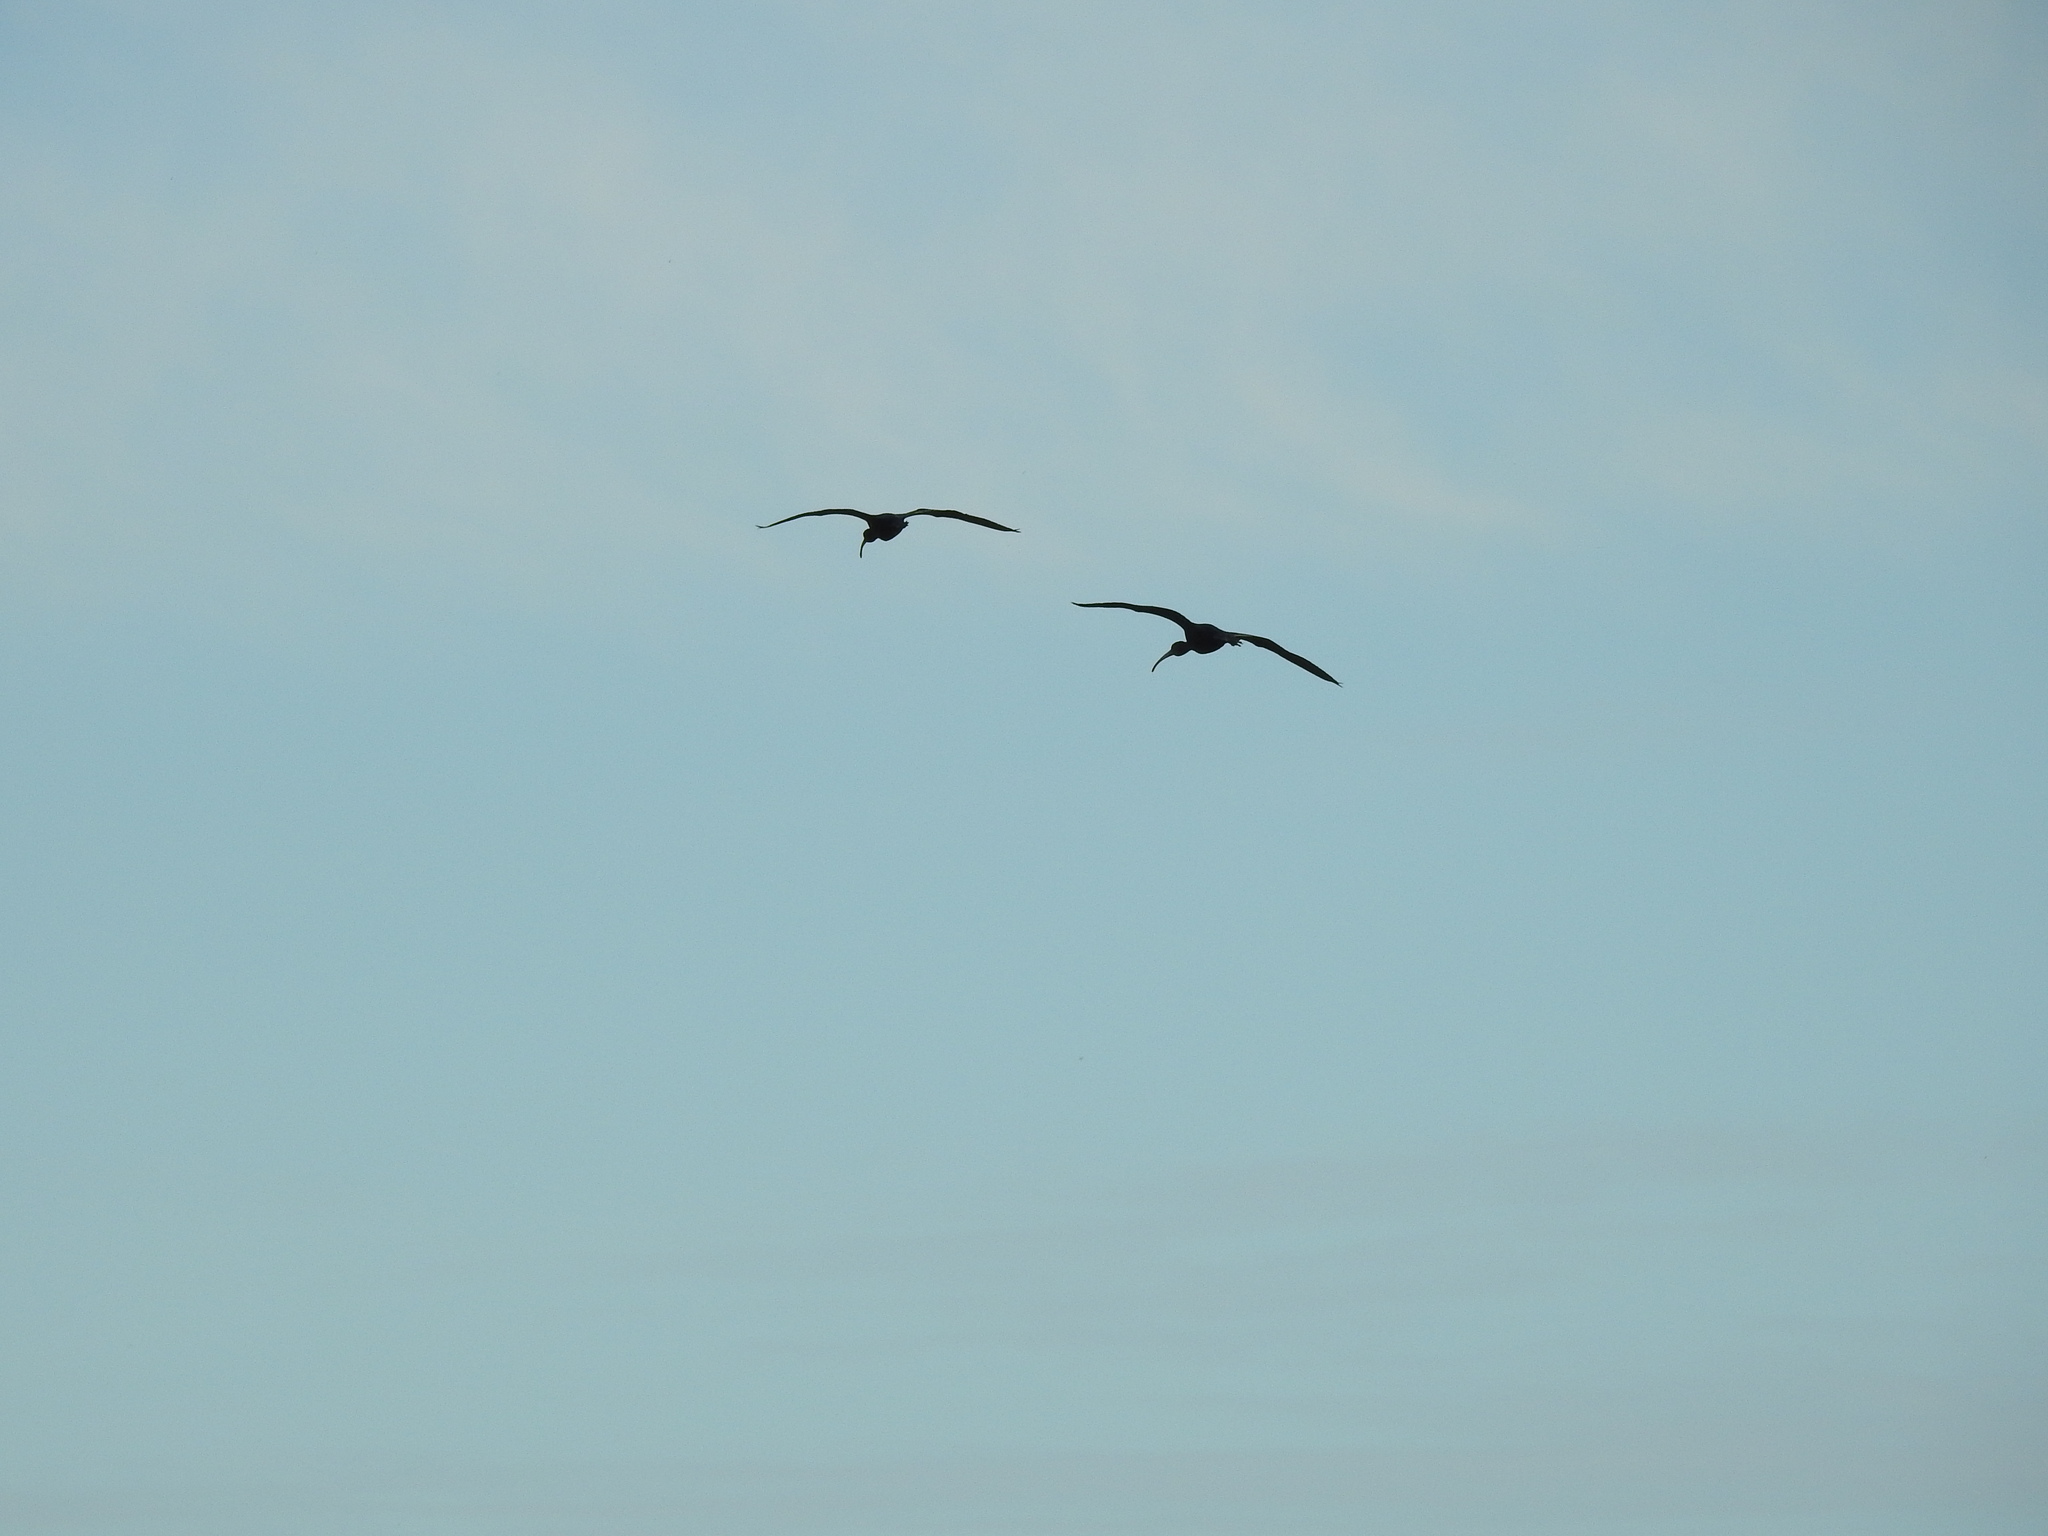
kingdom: Animalia
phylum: Chordata
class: Aves
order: Pelecaniformes
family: Threskiornithidae
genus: Plegadis
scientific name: Plegadis chihi
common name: White-faced ibis
